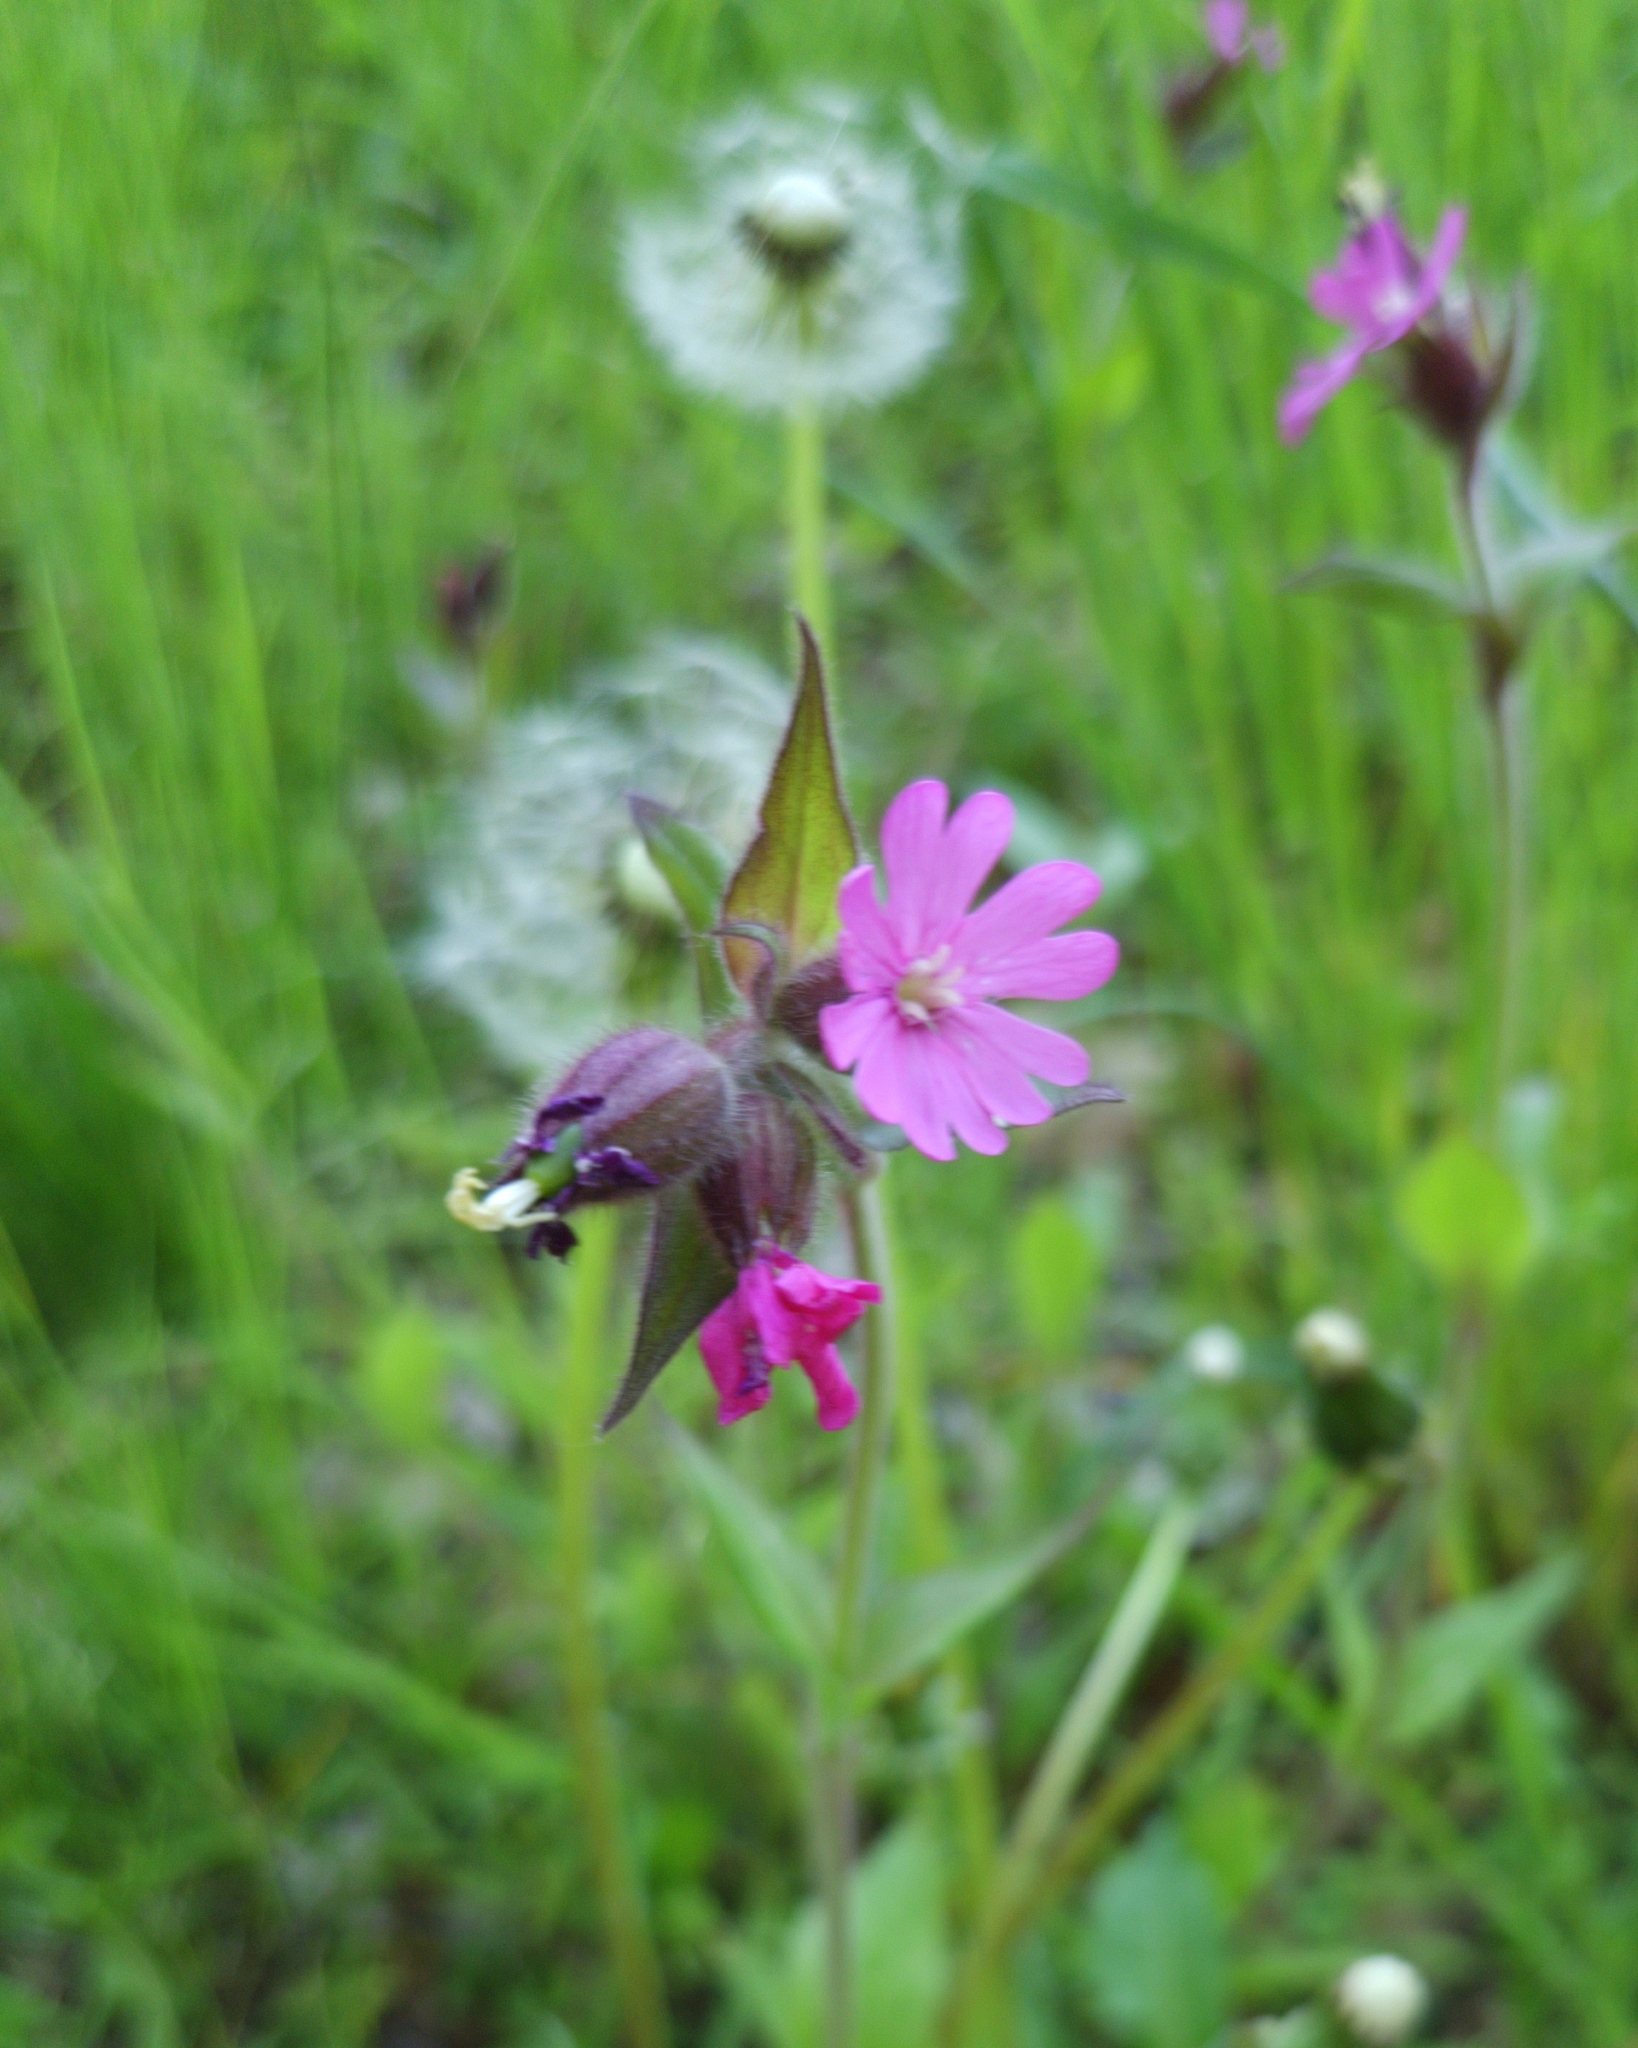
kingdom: Plantae
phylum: Tracheophyta
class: Magnoliopsida
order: Caryophyllales
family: Caryophyllaceae
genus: Silene
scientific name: Silene dioica
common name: Red campion
